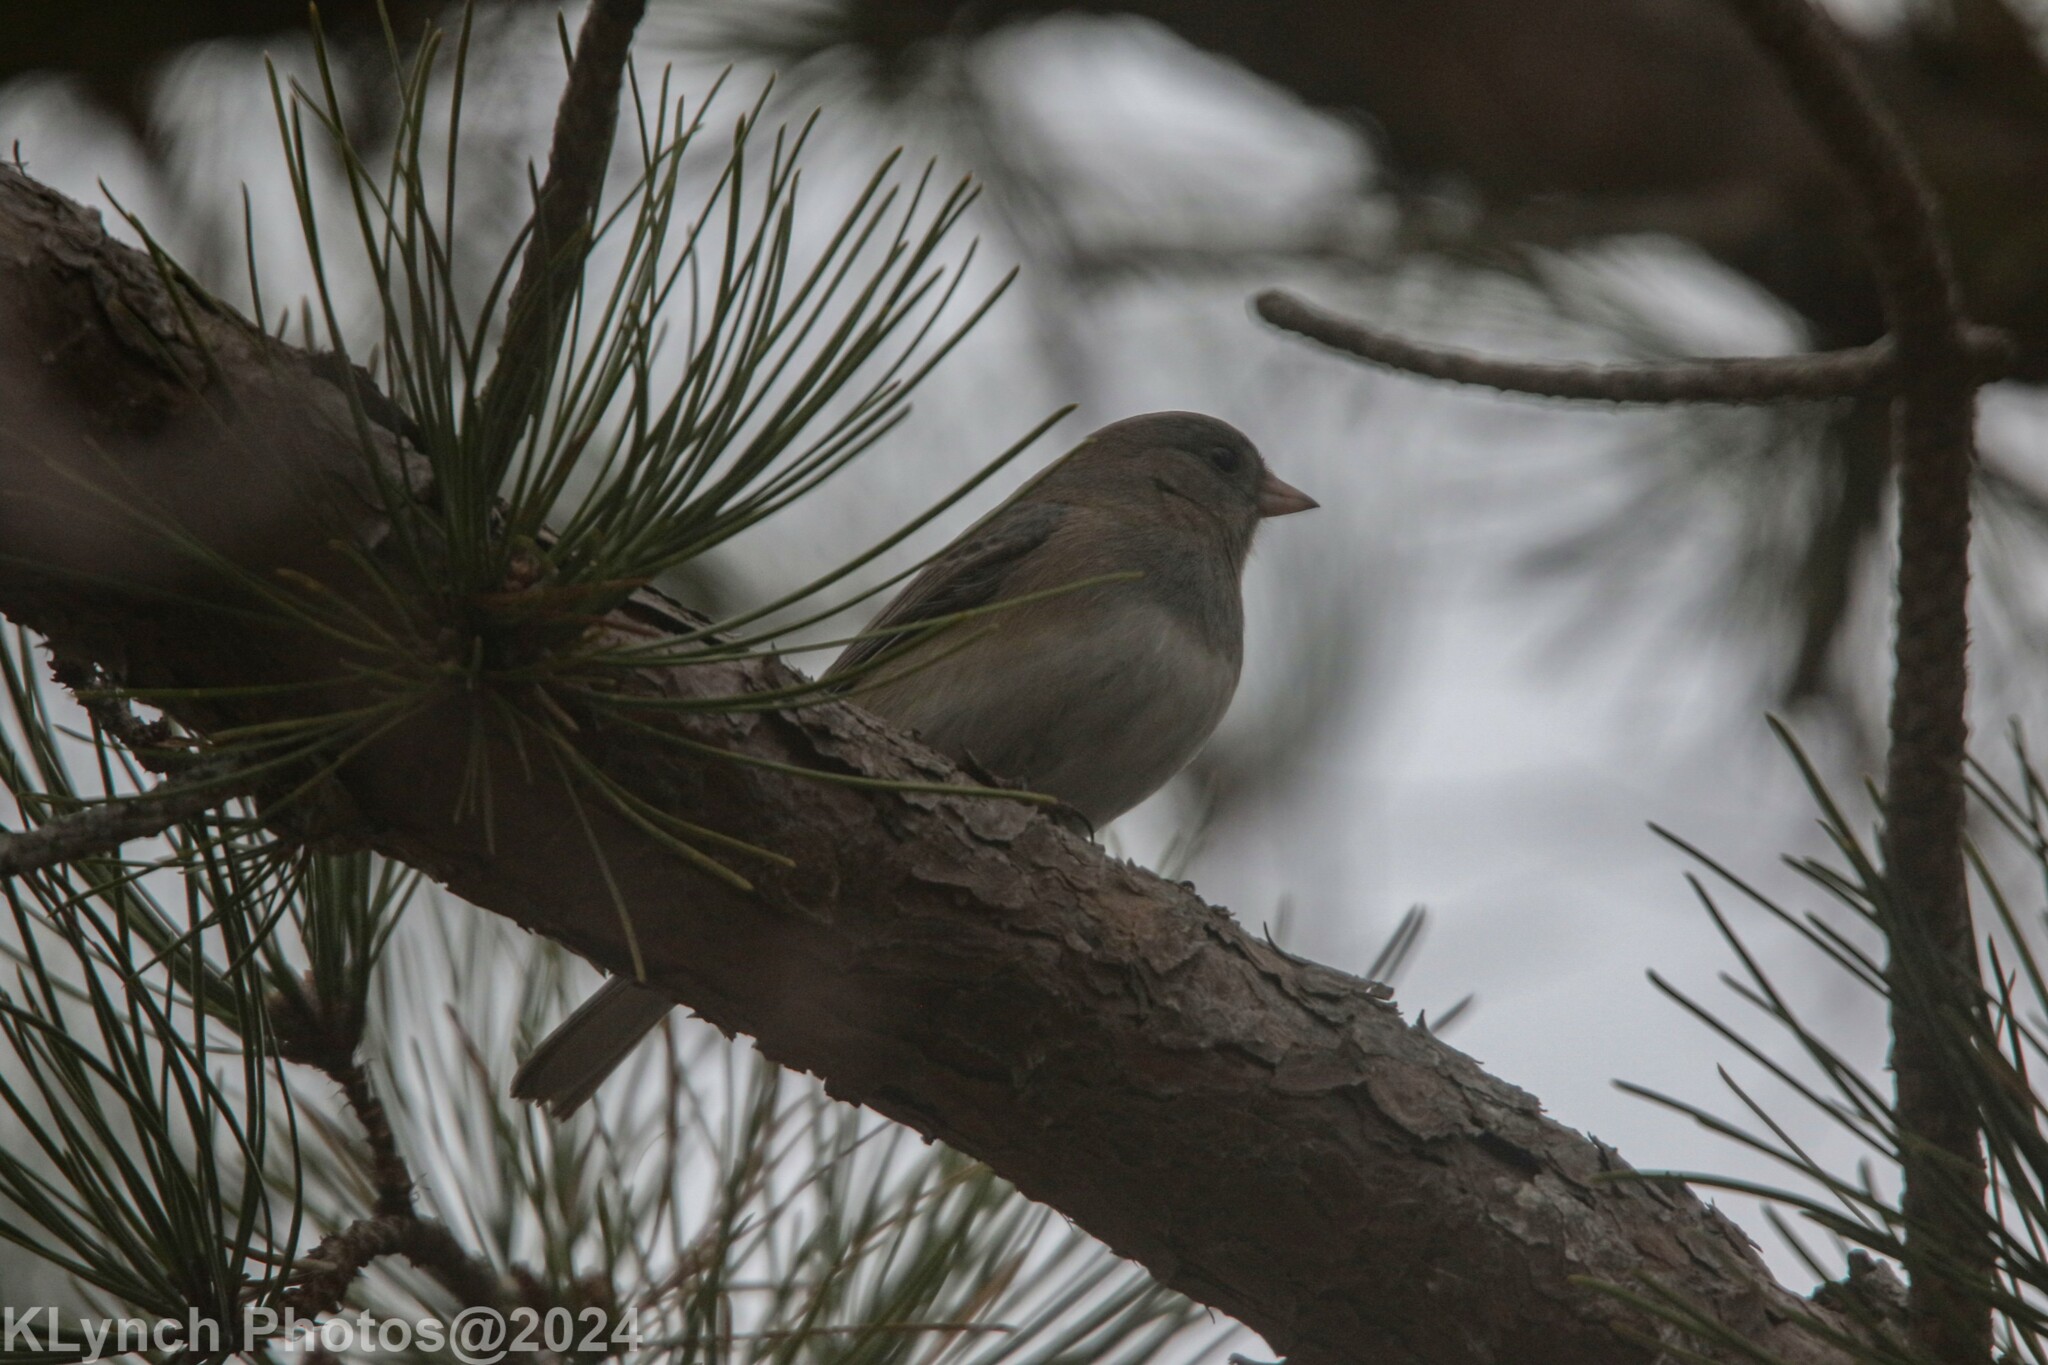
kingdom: Animalia
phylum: Chordata
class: Aves
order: Passeriformes
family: Passerellidae
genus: Junco
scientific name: Junco hyemalis
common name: Dark-eyed junco
